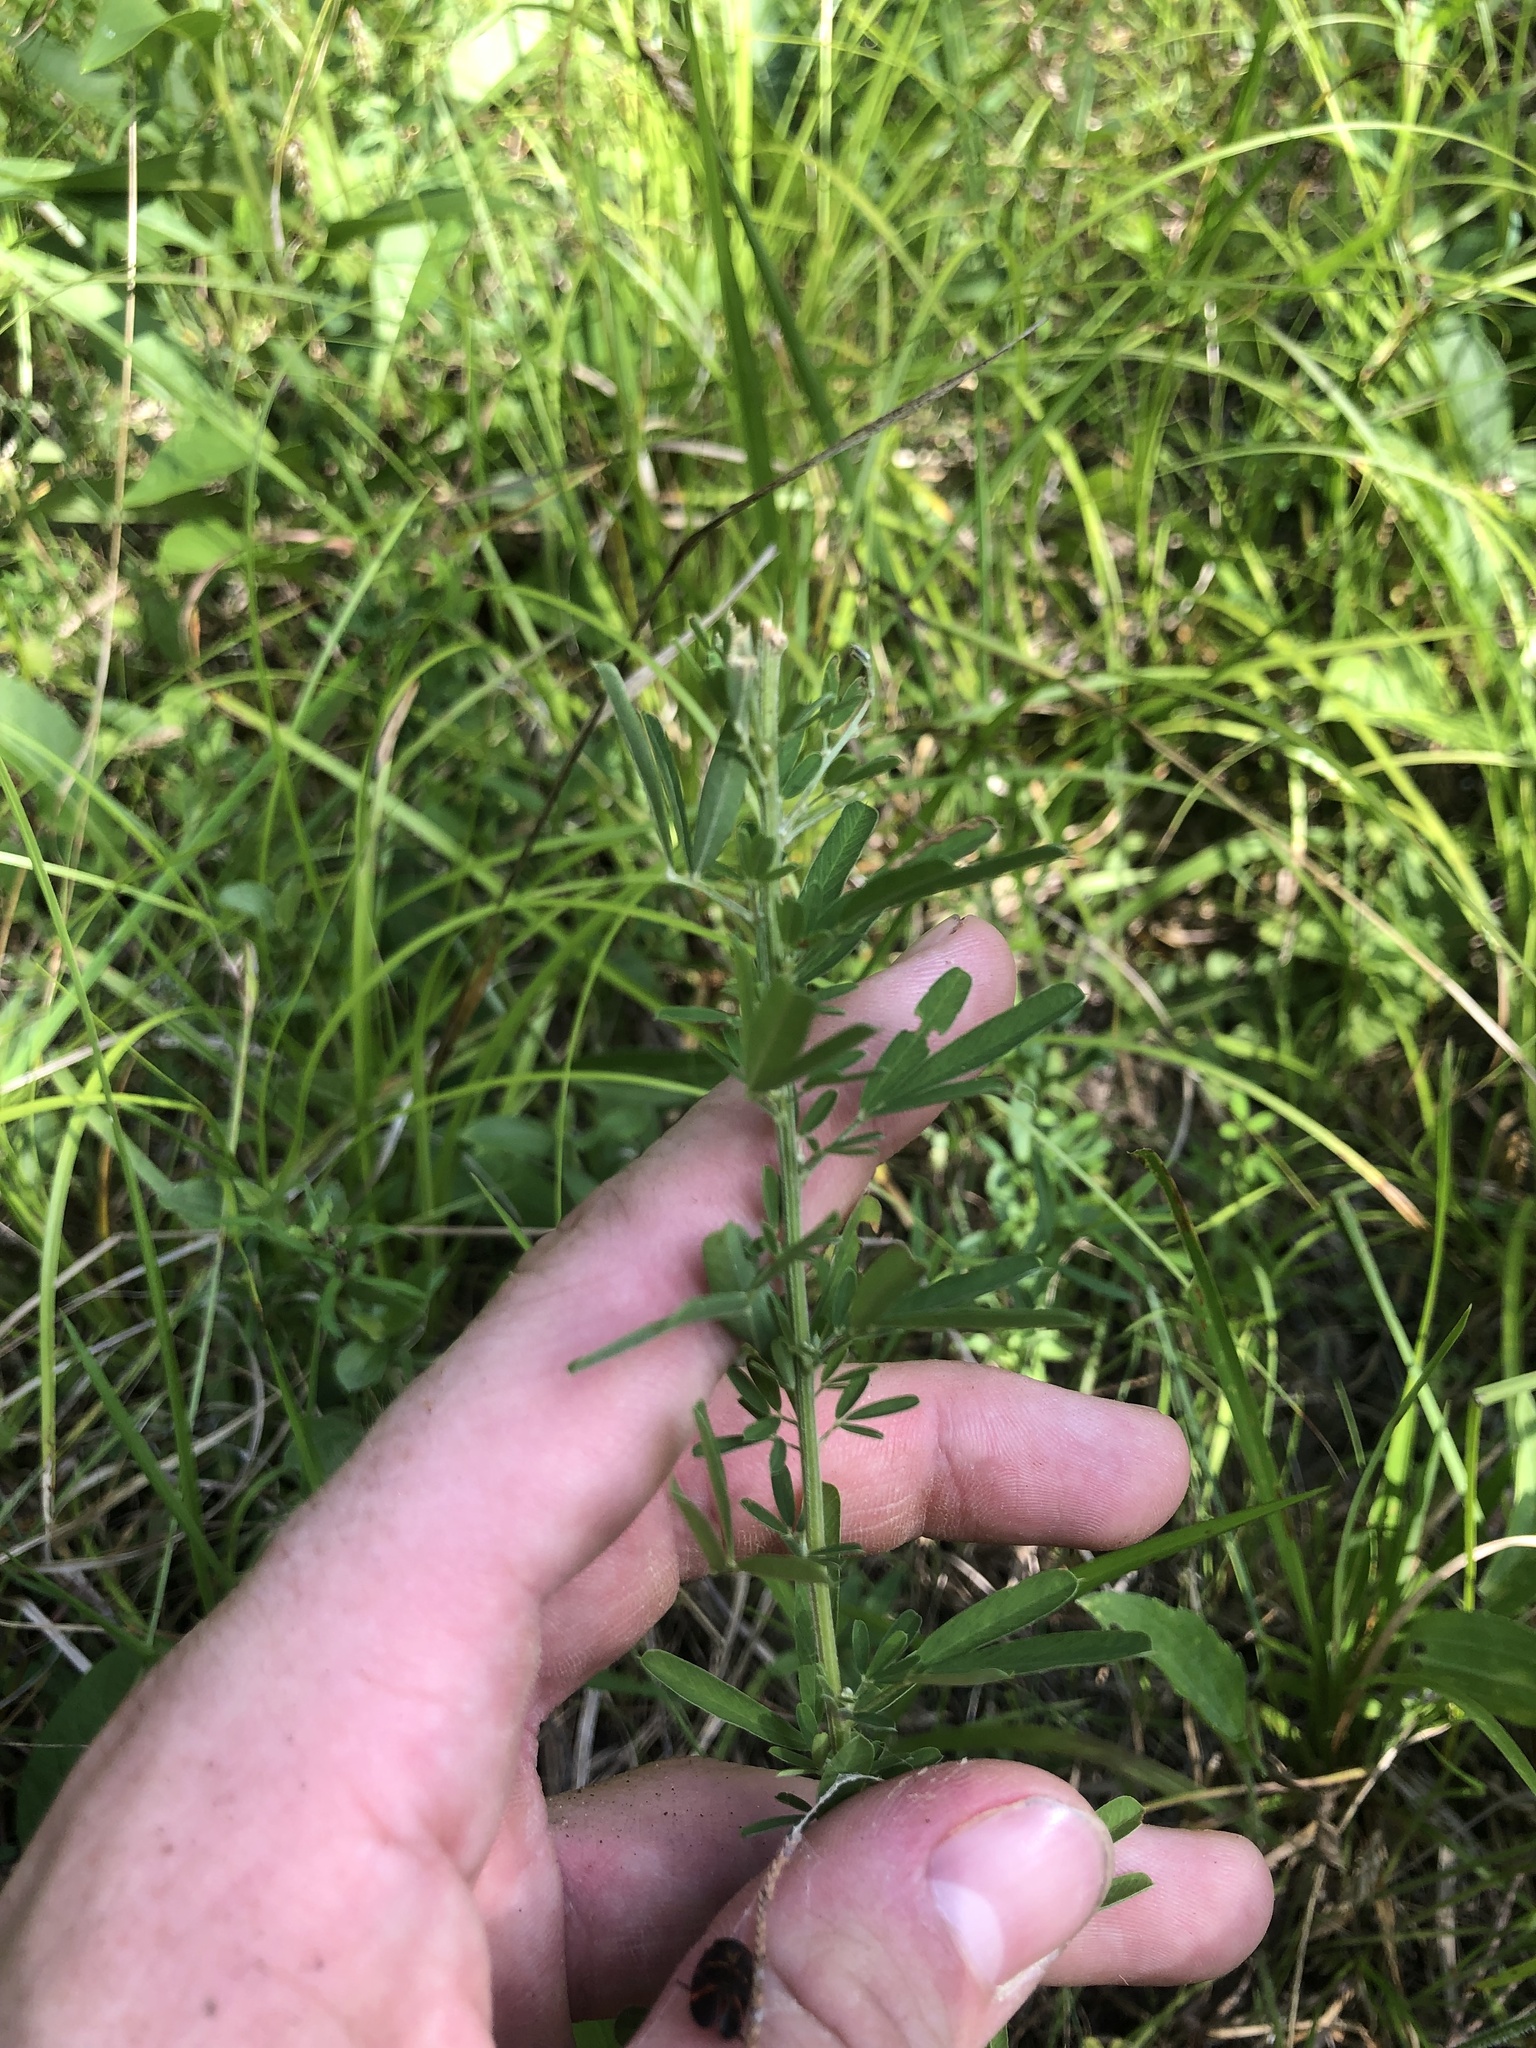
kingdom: Plantae
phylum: Tracheophyta
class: Magnoliopsida
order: Fabales
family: Fabaceae
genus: Lespedeza
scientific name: Lespedeza cuneata
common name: Chinese bush-clover
